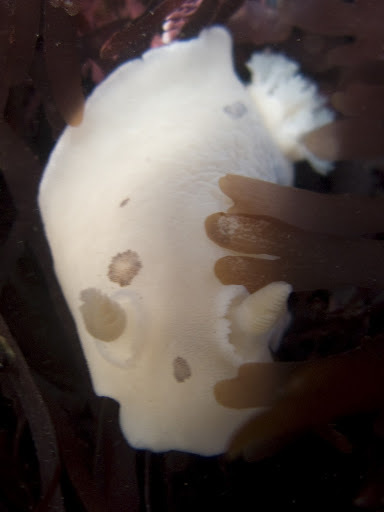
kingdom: Animalia
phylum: Mollusca
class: Gastropoda
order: Nudibranchia
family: Discodorididae
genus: Diaulula
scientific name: Diaulula sandiegensis
